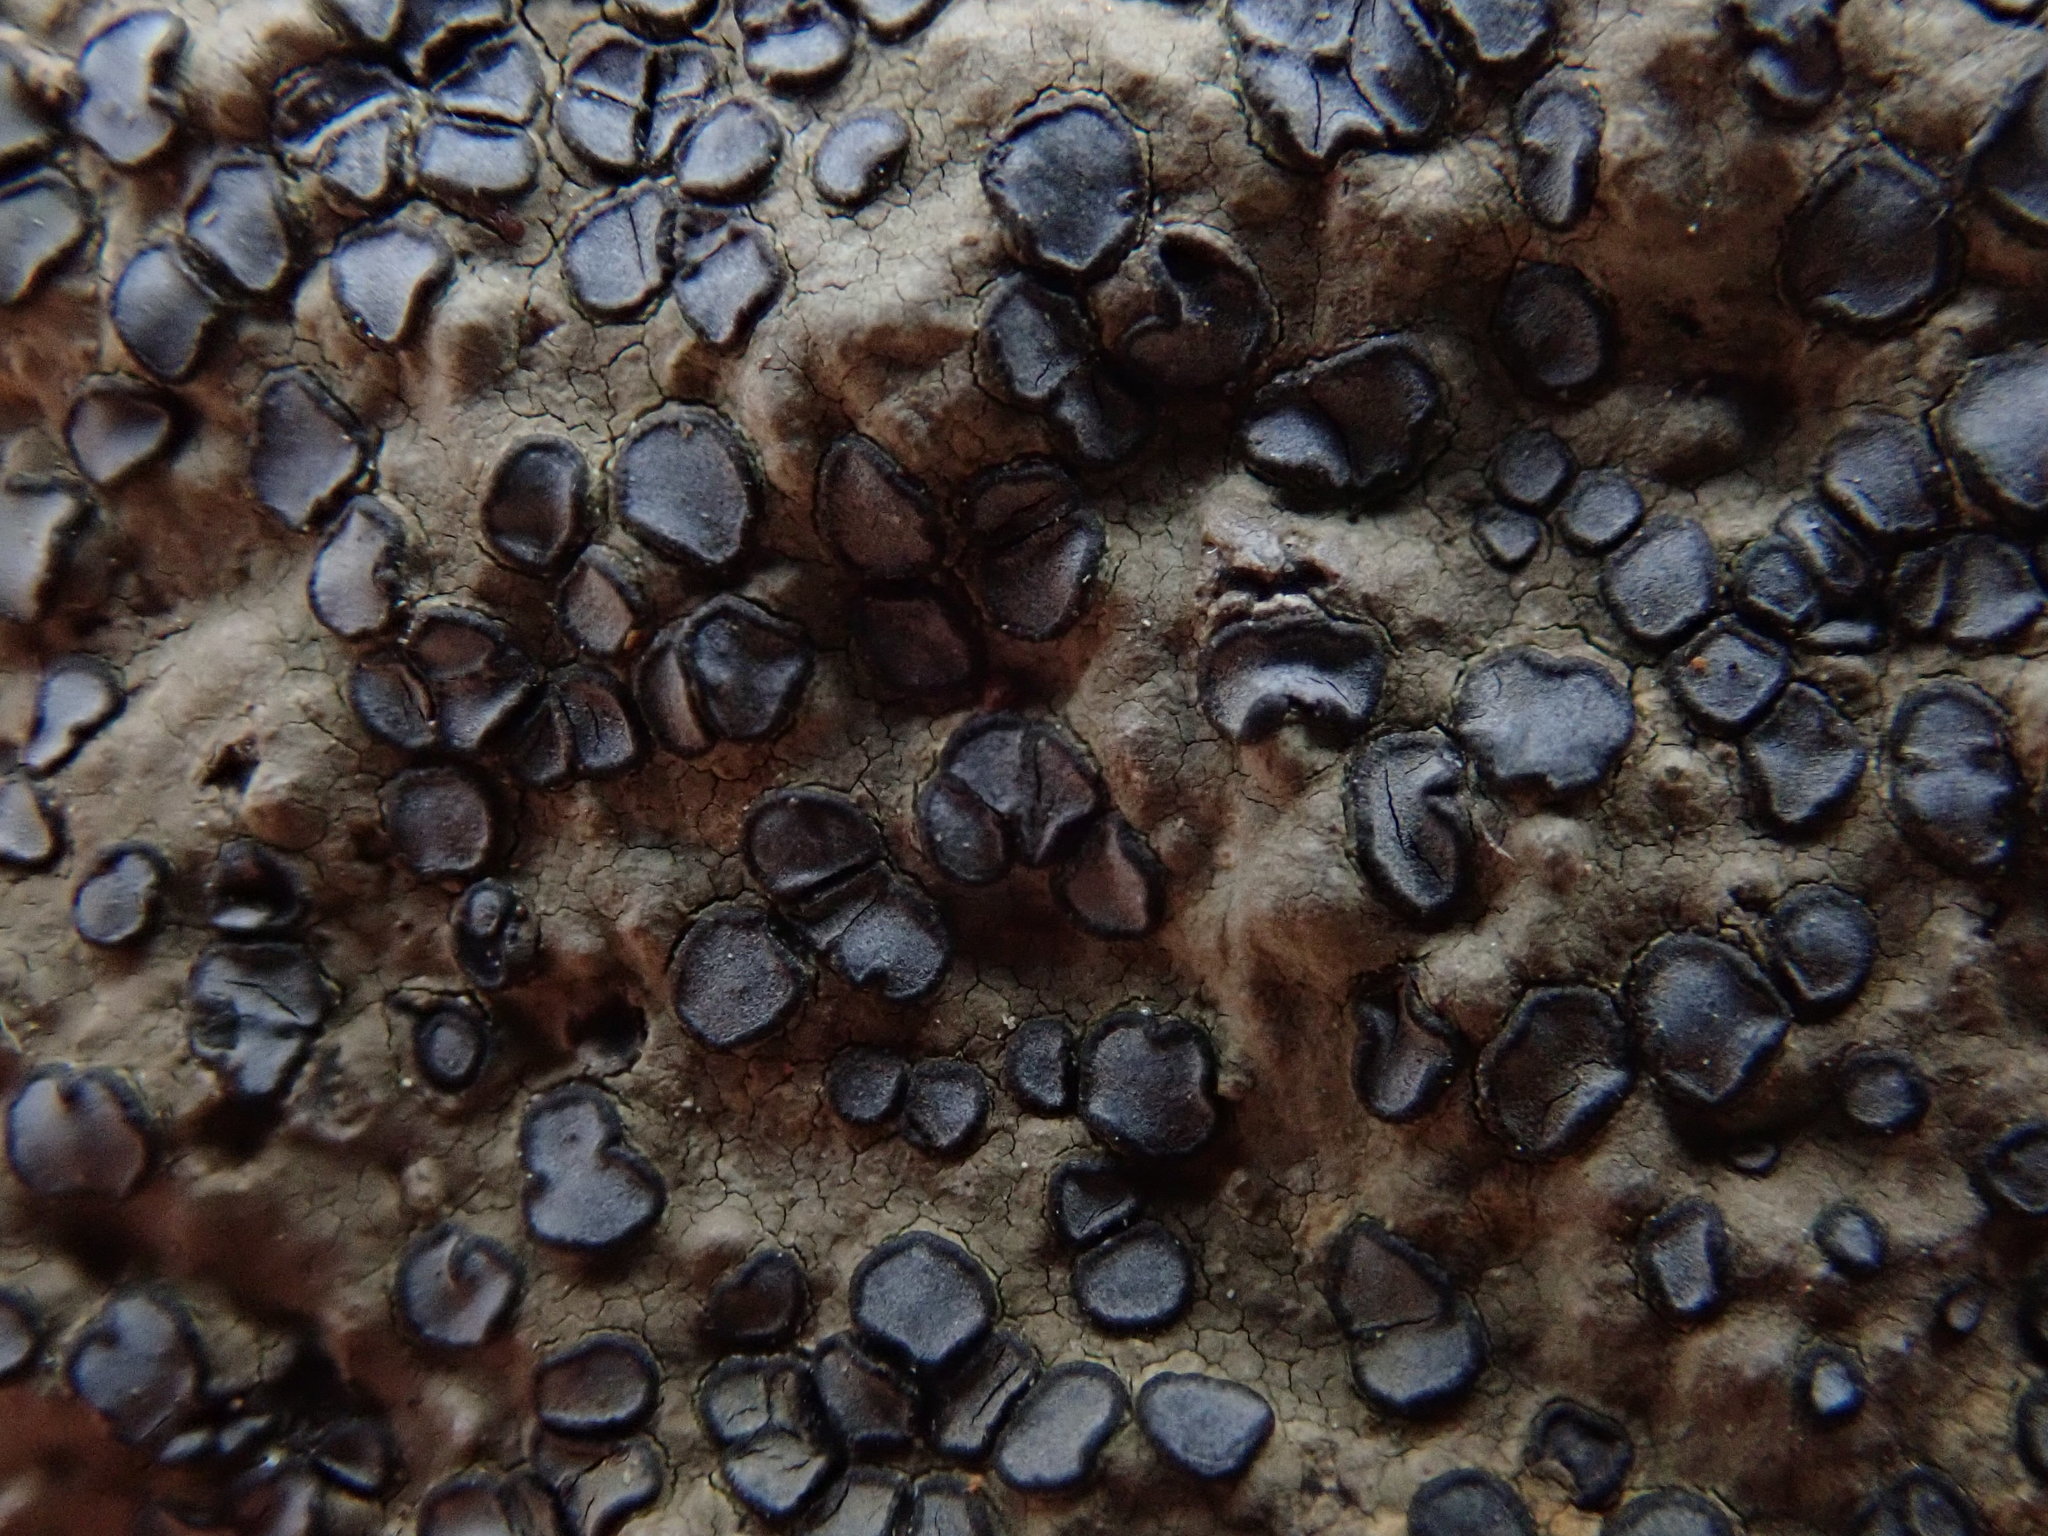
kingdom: Fungi
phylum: Ascomycota
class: Lecanoromycetes
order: Lecideales
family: Lecideaceae
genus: Porpidia
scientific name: Porpidia albocaerulescens
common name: Smokey-eyed boulder lichen
